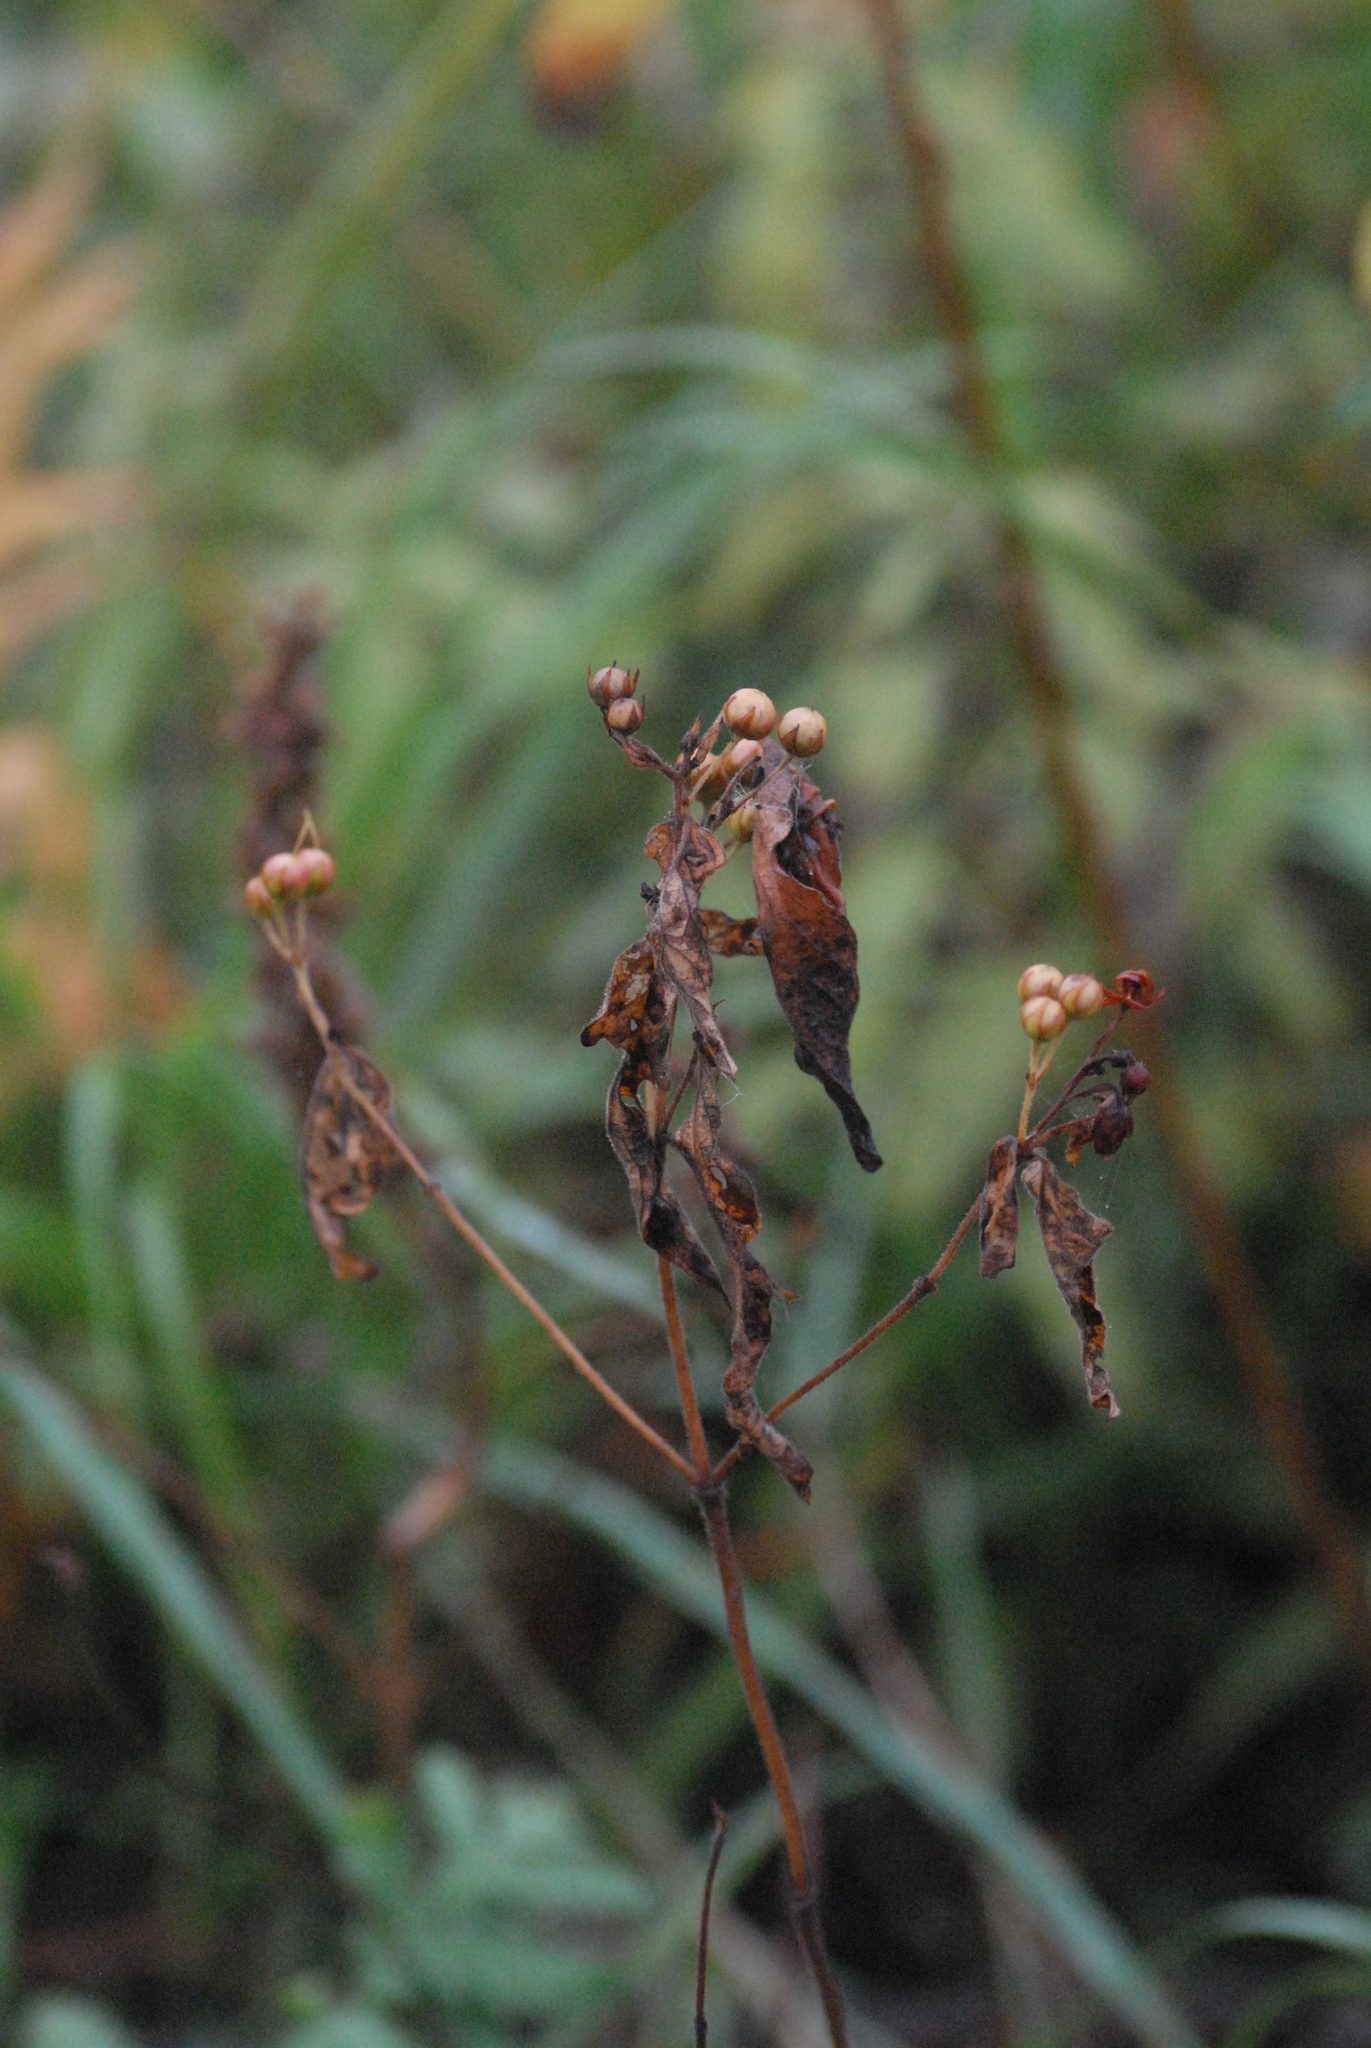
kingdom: Plantae
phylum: Tracheophyta
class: Magnoliopsida
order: Ericales
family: Primulaceae
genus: Lysimachia
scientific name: Lysimachia vulgaris
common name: Yellow loosestrife
